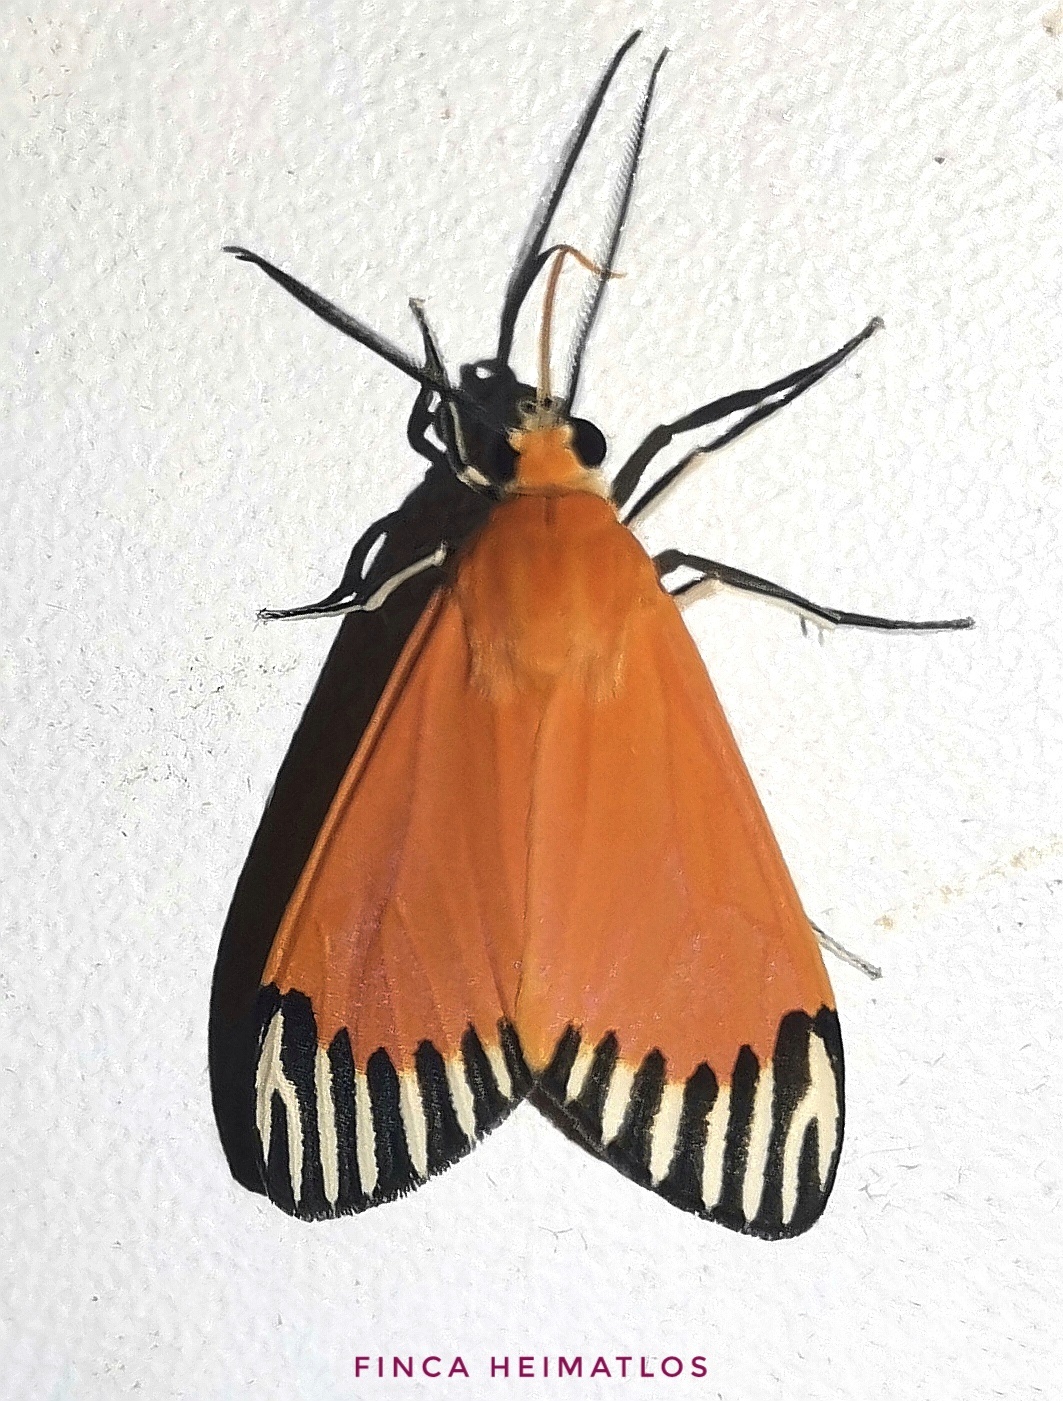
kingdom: Animalia
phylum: Arthropoda
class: Insecta
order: Lepidoptera
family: Erebidae
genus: Uranophora
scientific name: Uranophora walkeri
